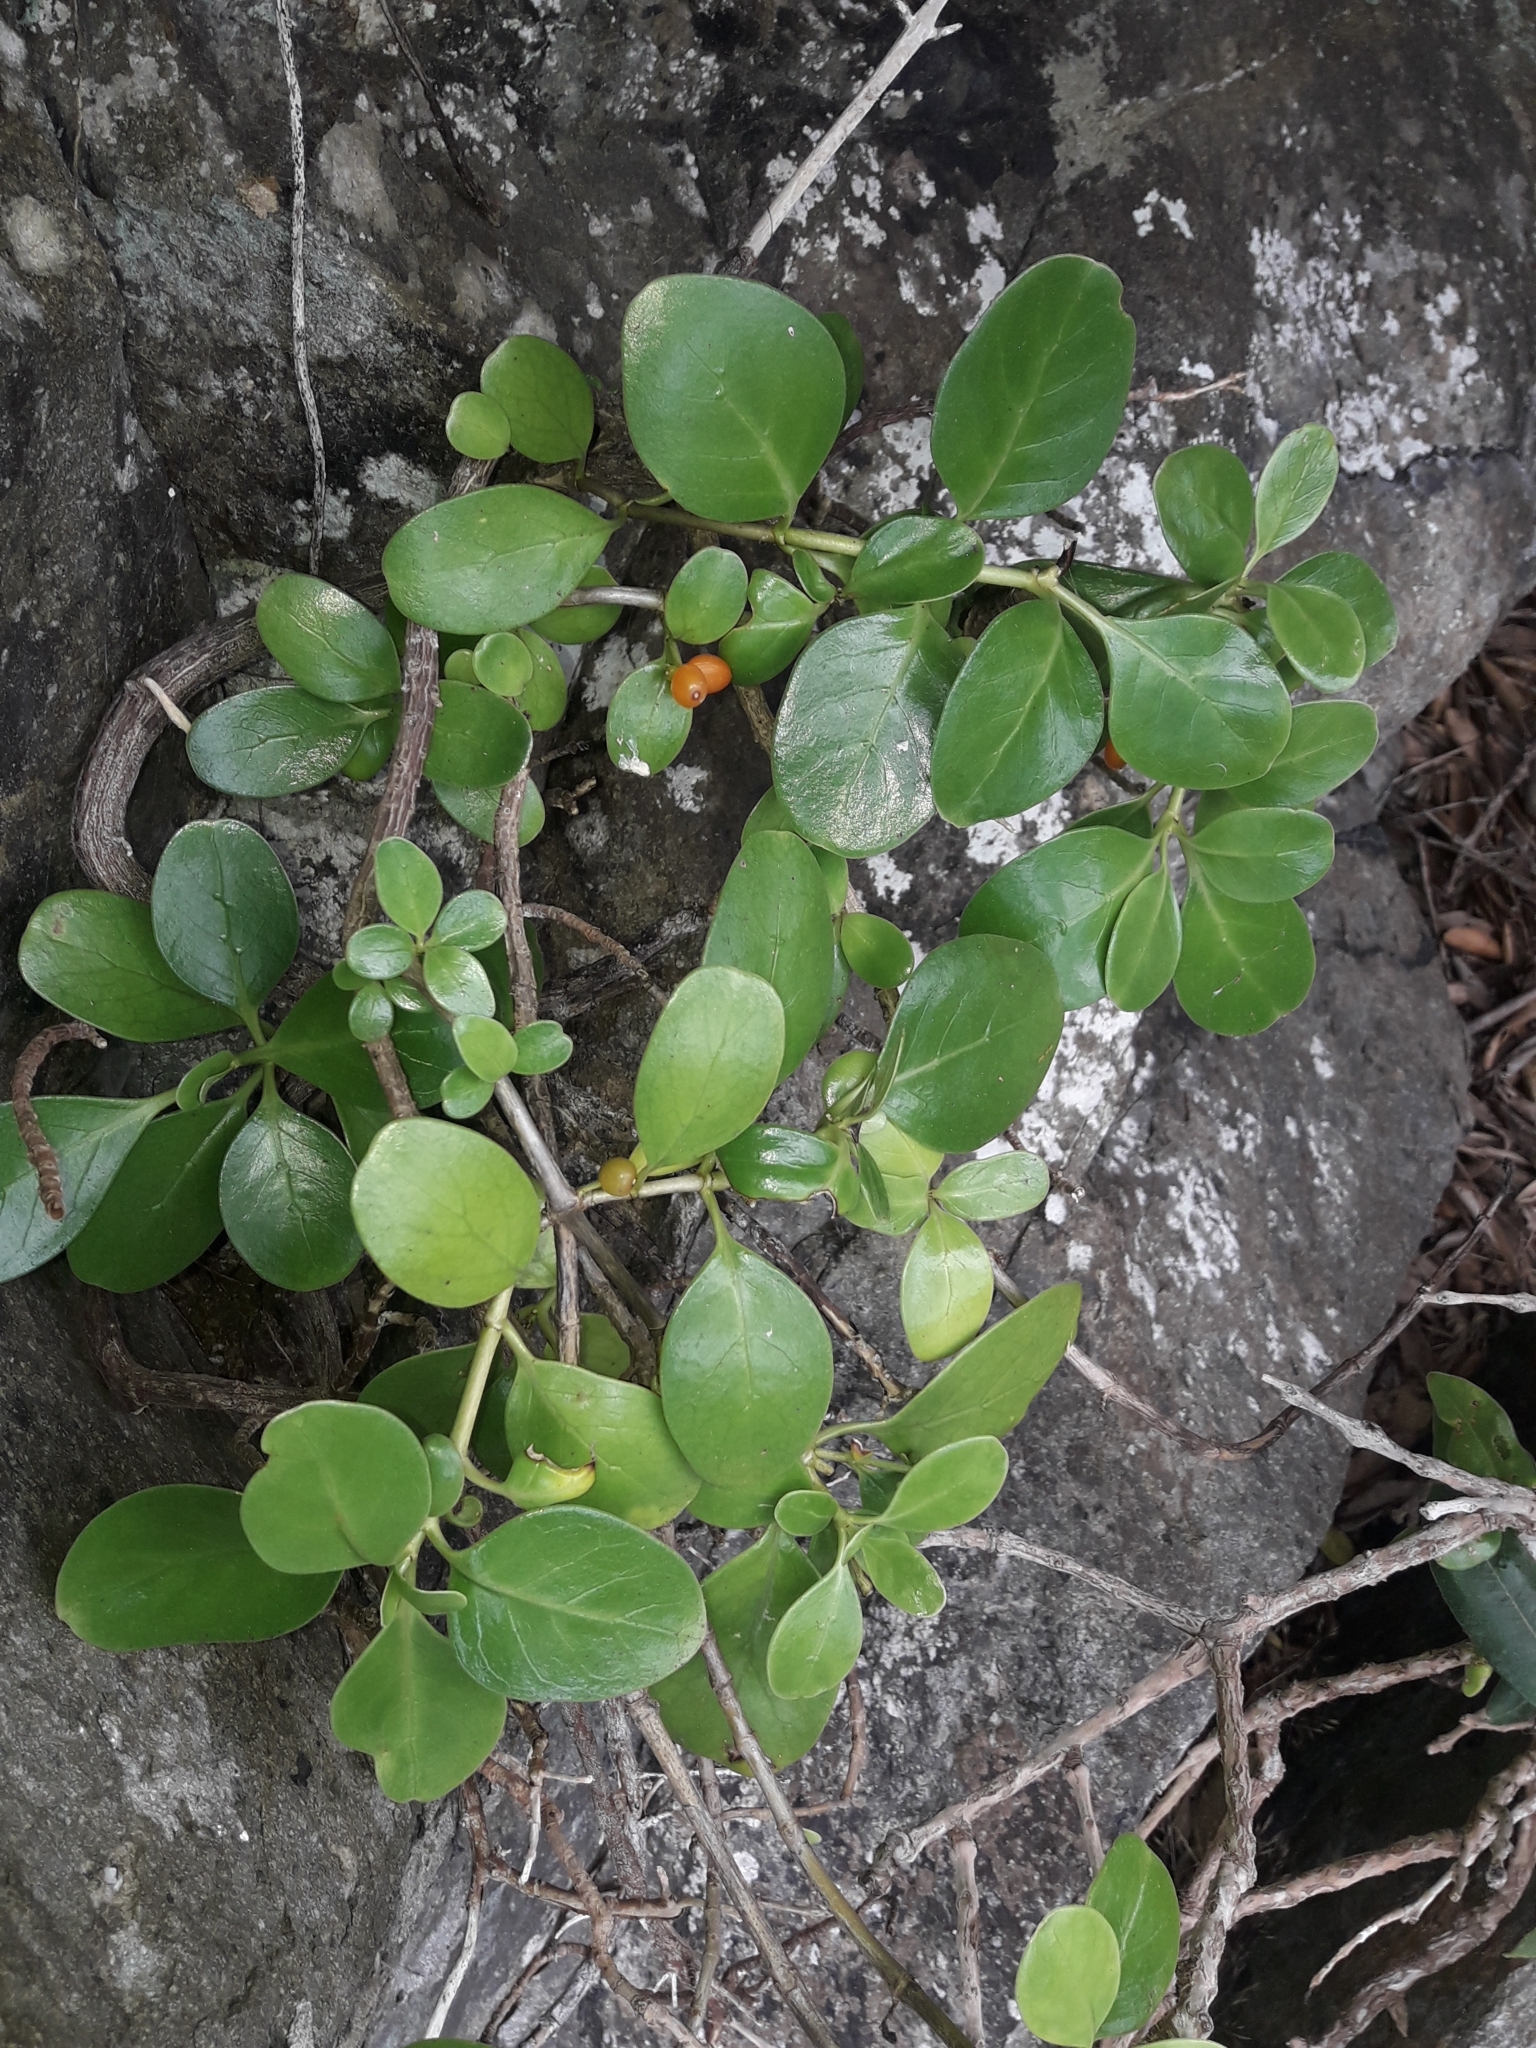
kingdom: Plantae
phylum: Tracheophyta
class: Magnoliopsida
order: Gentianales
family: Rubiaceae
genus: Coprosma
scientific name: Coprosma repens
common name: Tree bedstraw
